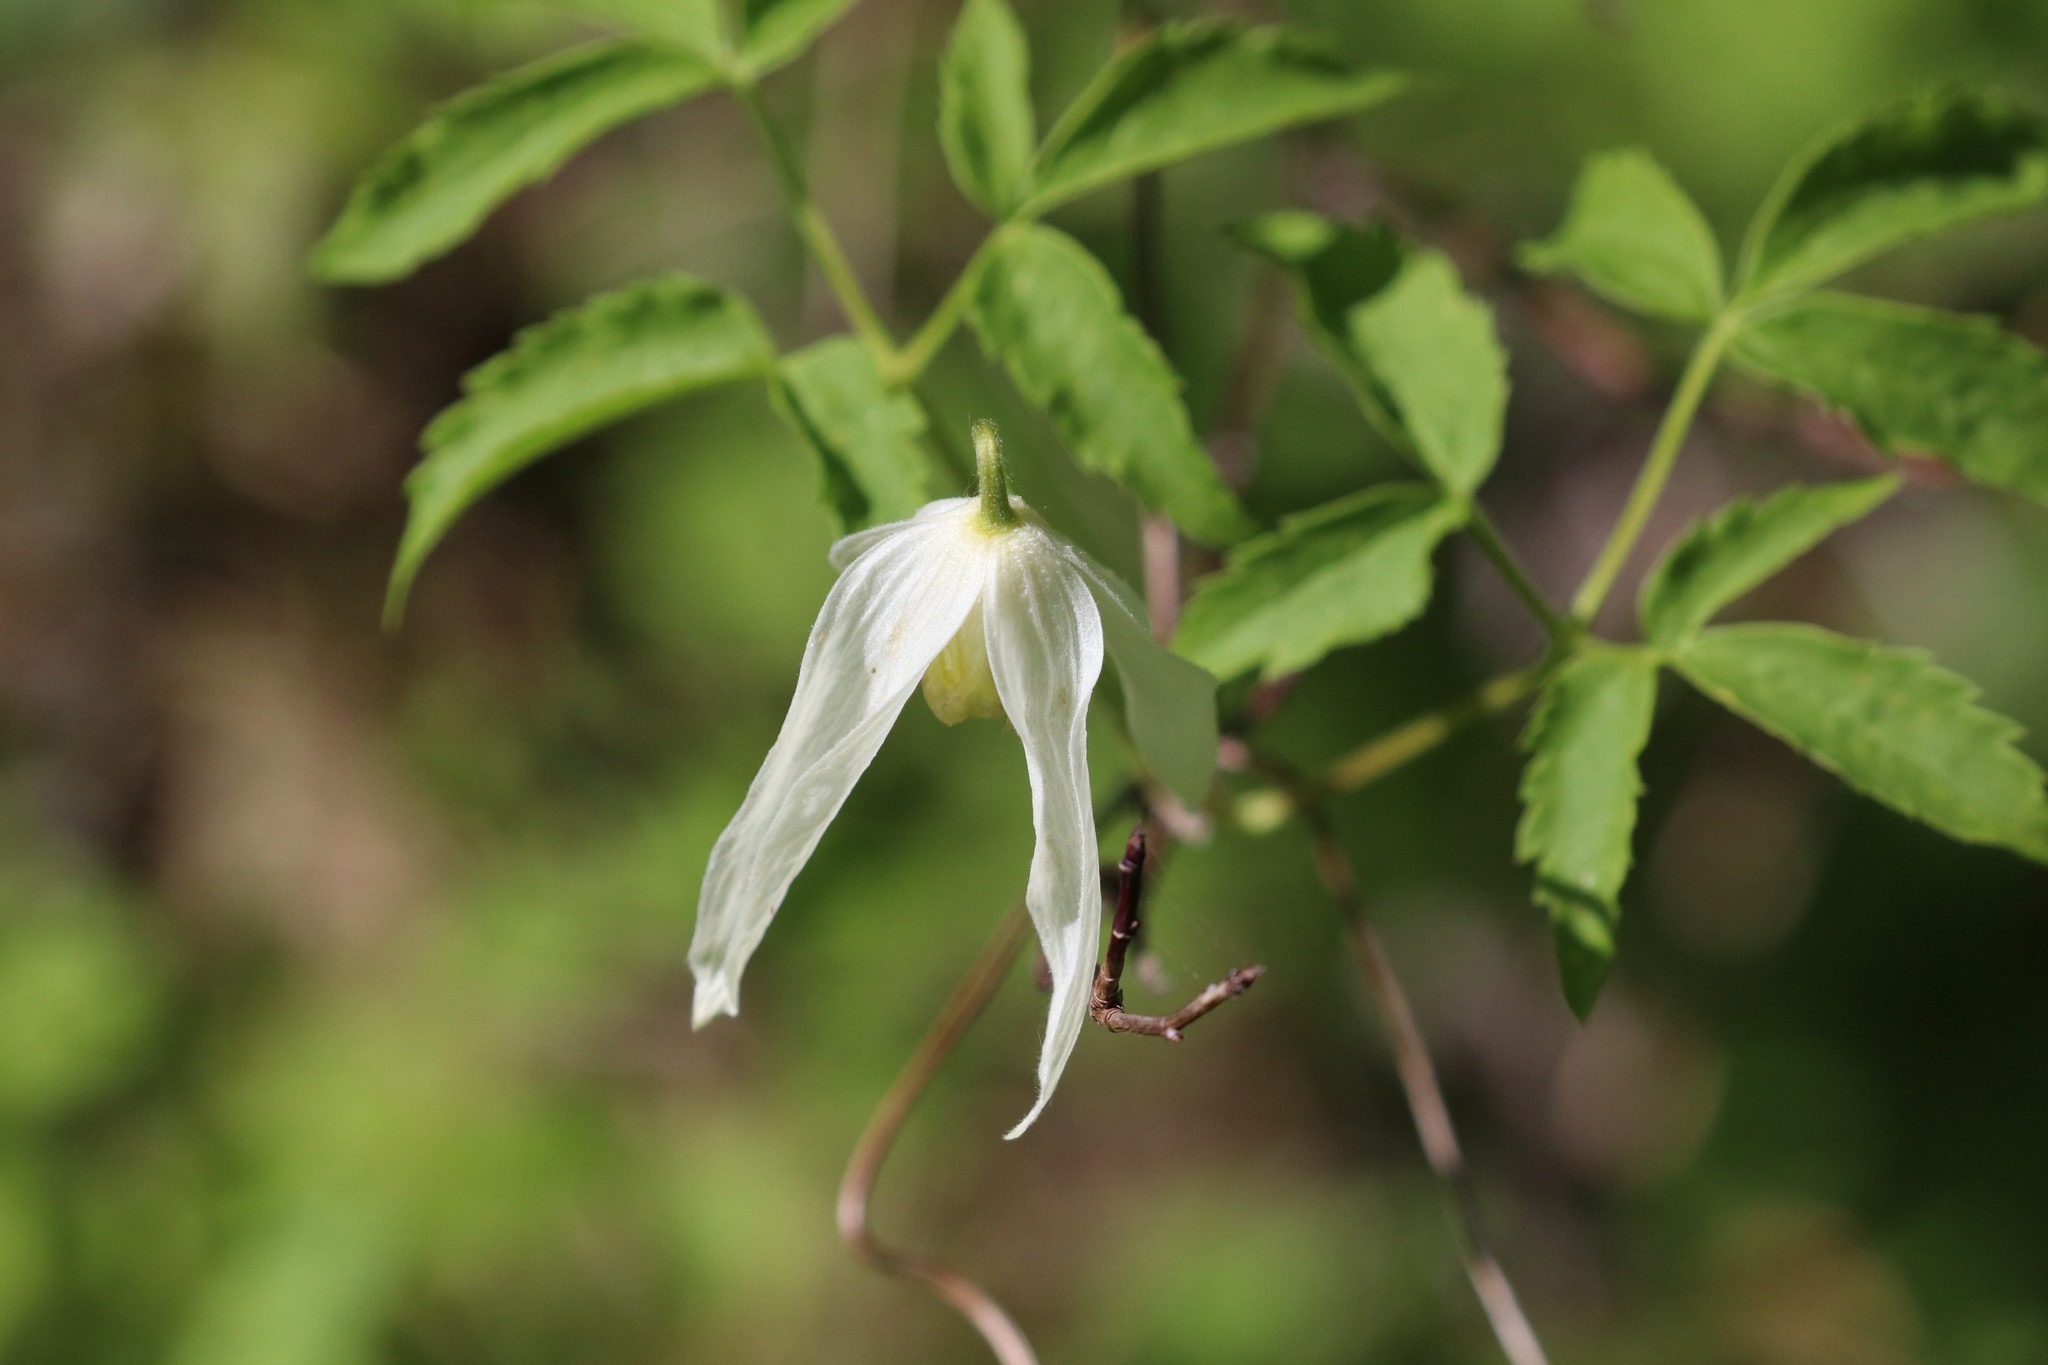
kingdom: Plantae
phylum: Tracheophyta
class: Magnoliopsida
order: Ranunculales
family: Ranunculaceae
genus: Clematis
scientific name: Clematis sibirica
